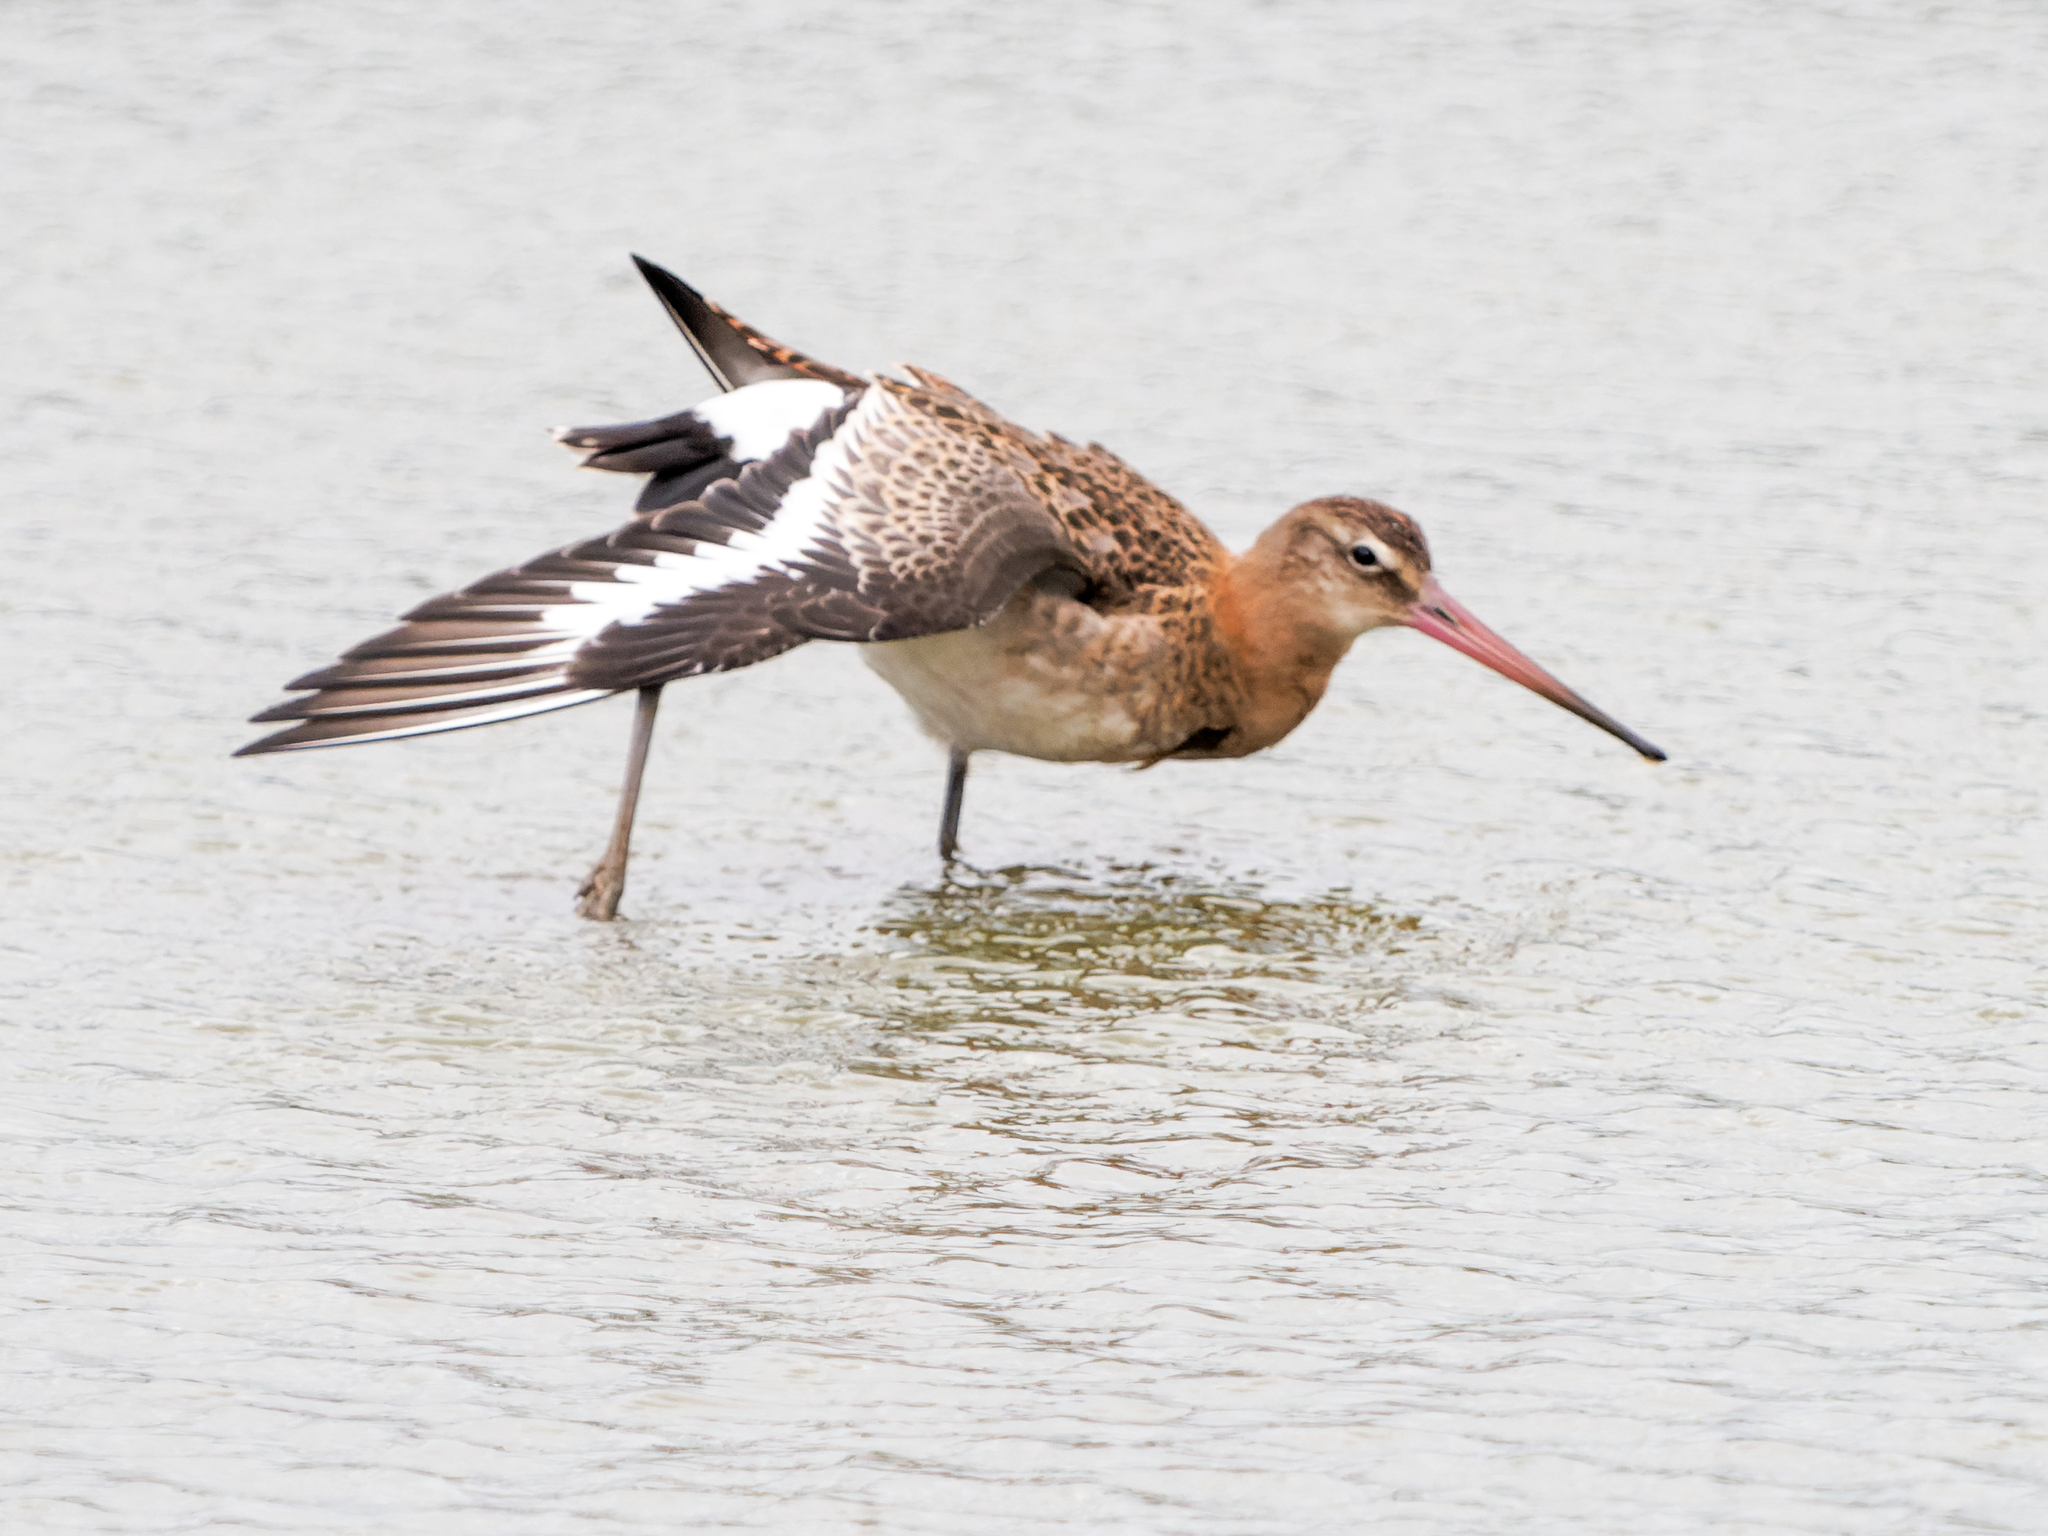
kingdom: Animalia
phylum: Chordata
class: Aves
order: Charadriiformes
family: Scolopacidae
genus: Limosa
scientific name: Limosa limosa
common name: Black-tailed godwit
